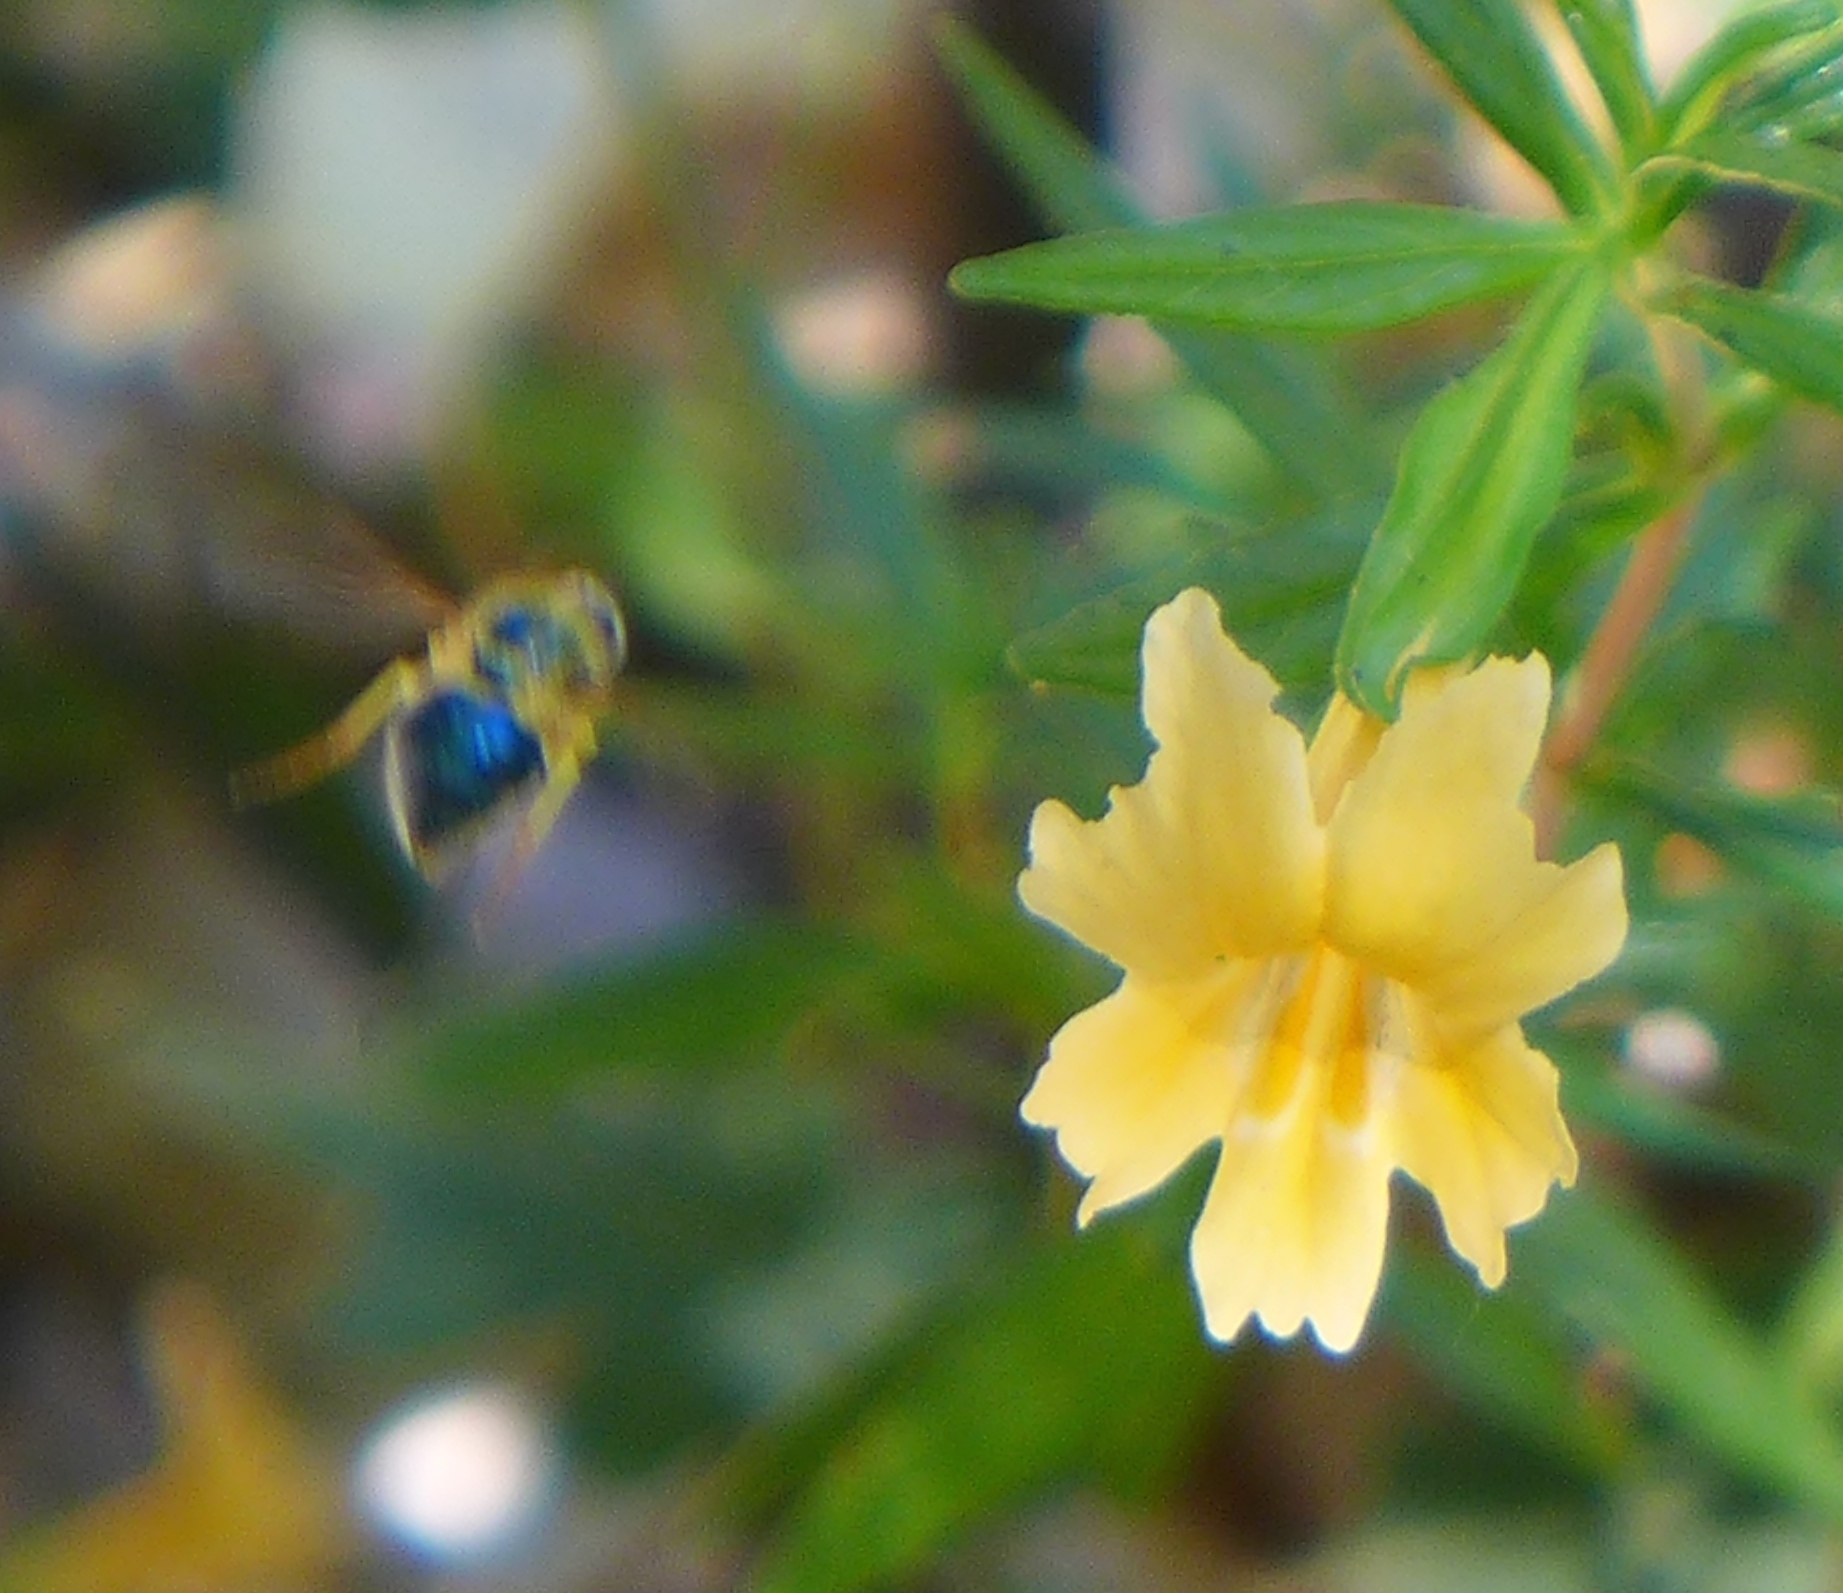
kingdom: Animalia
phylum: Arthropoda
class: Insecta
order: Diptera
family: Acroceridae
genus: Eulonchus
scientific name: Eulonchus smaragdinus
